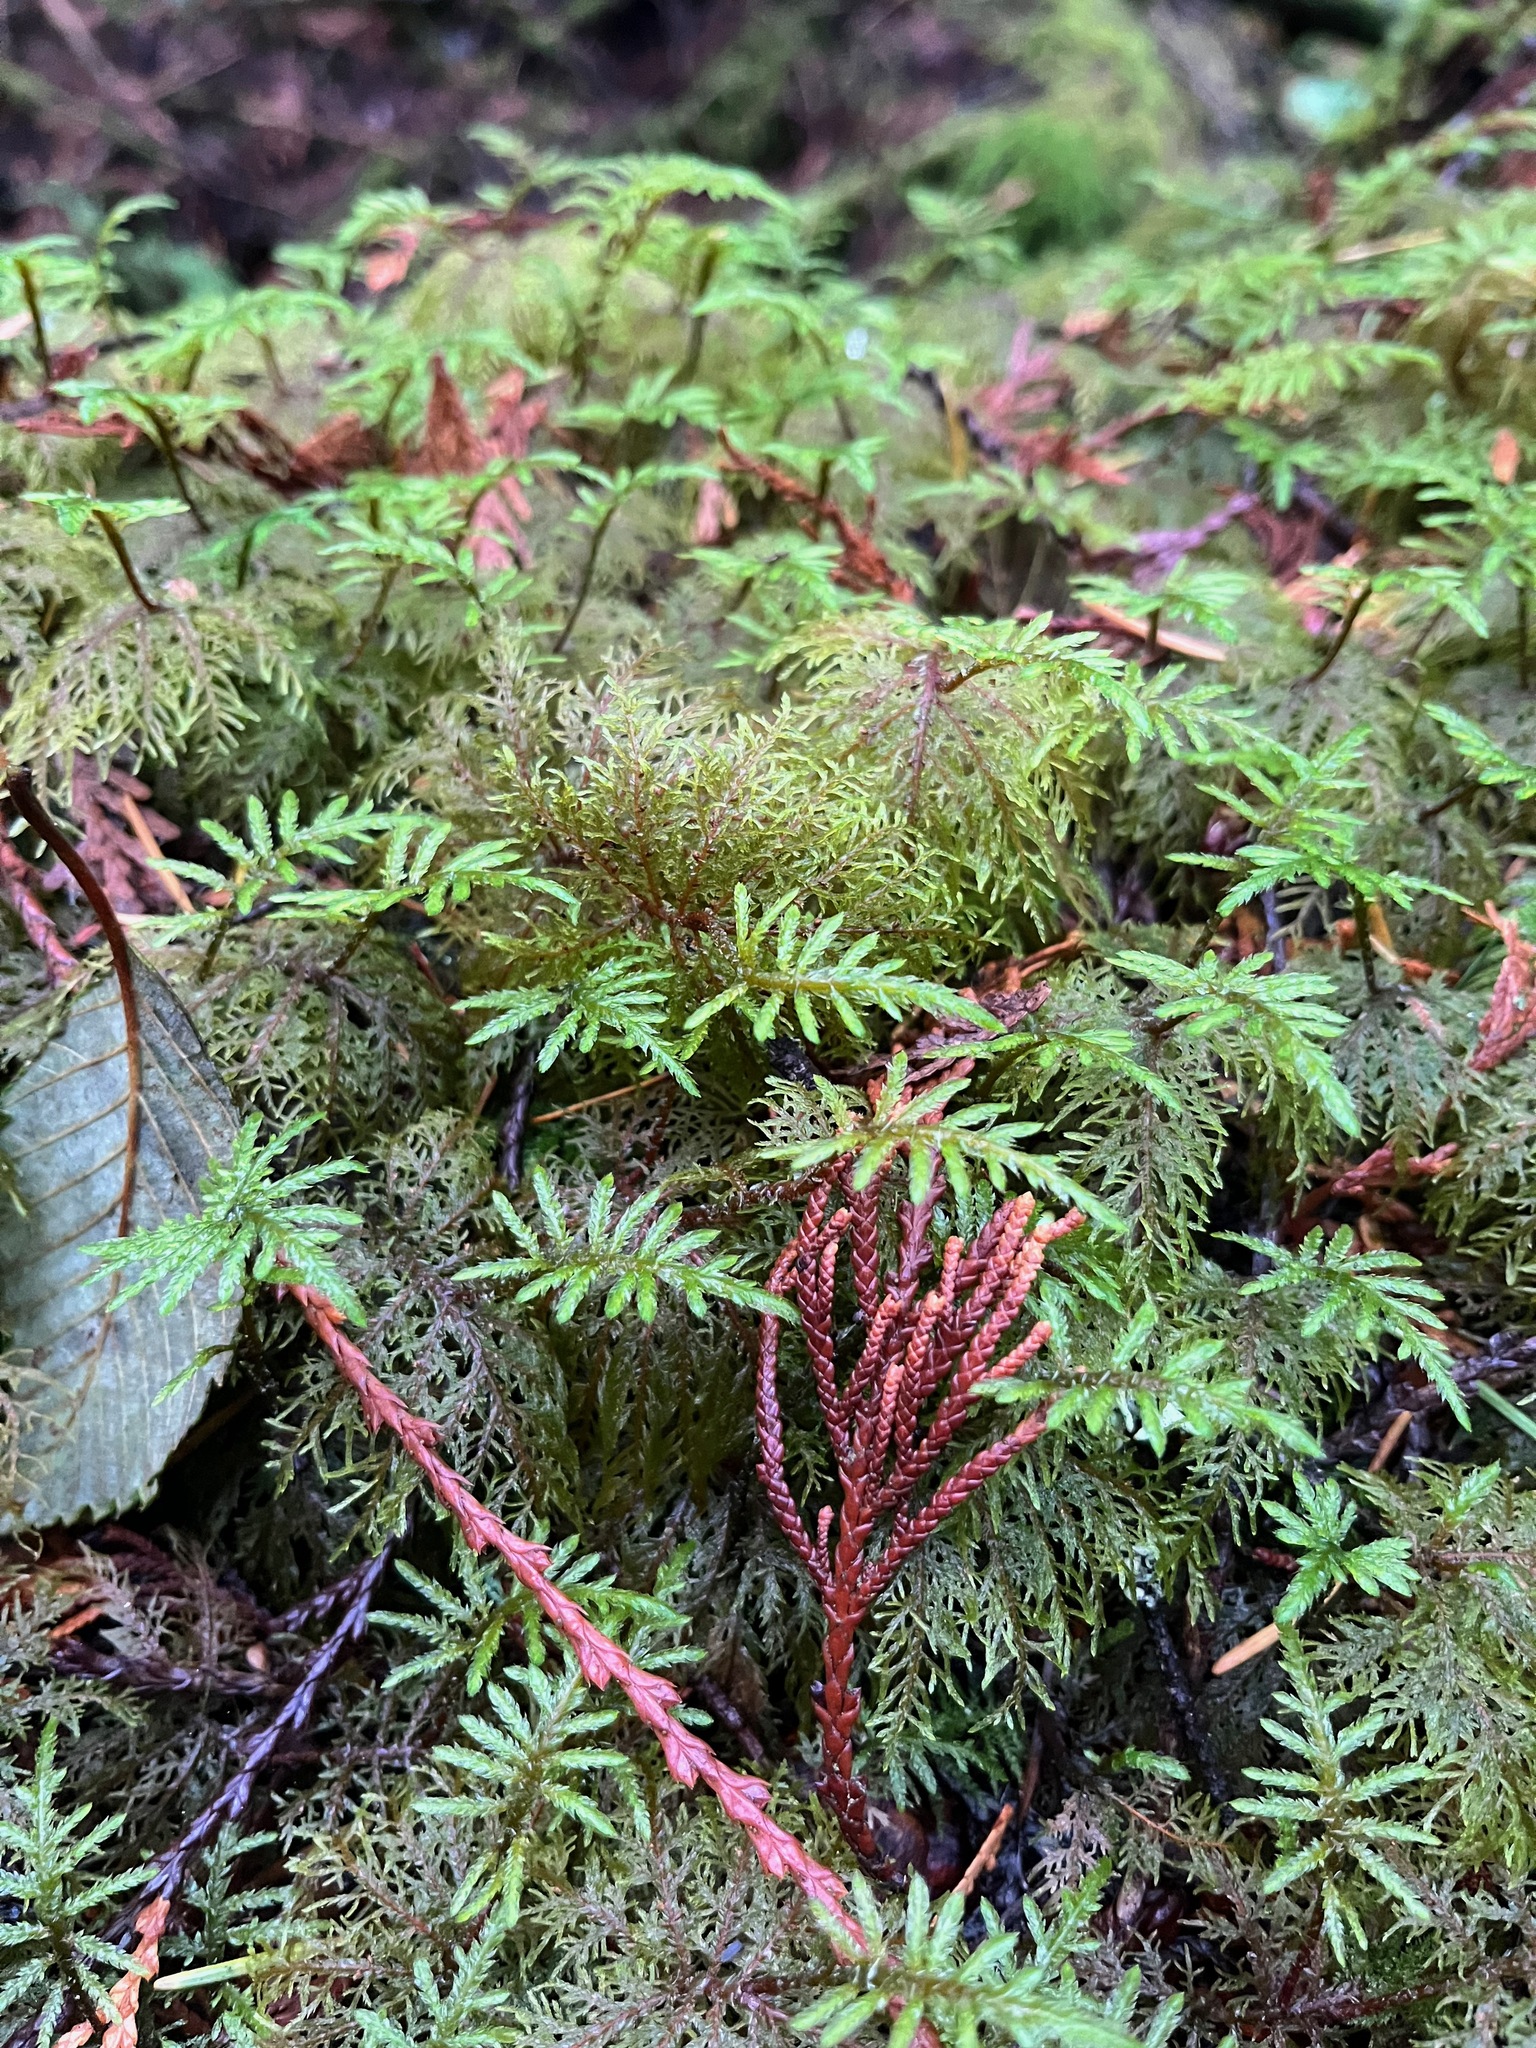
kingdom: Plantae
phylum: Bryophyta
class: Bryopsida
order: Hypnales
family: Hylocomiaceae
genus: Hylocomium
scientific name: Hylocomium splendens
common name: Stairstep moss
